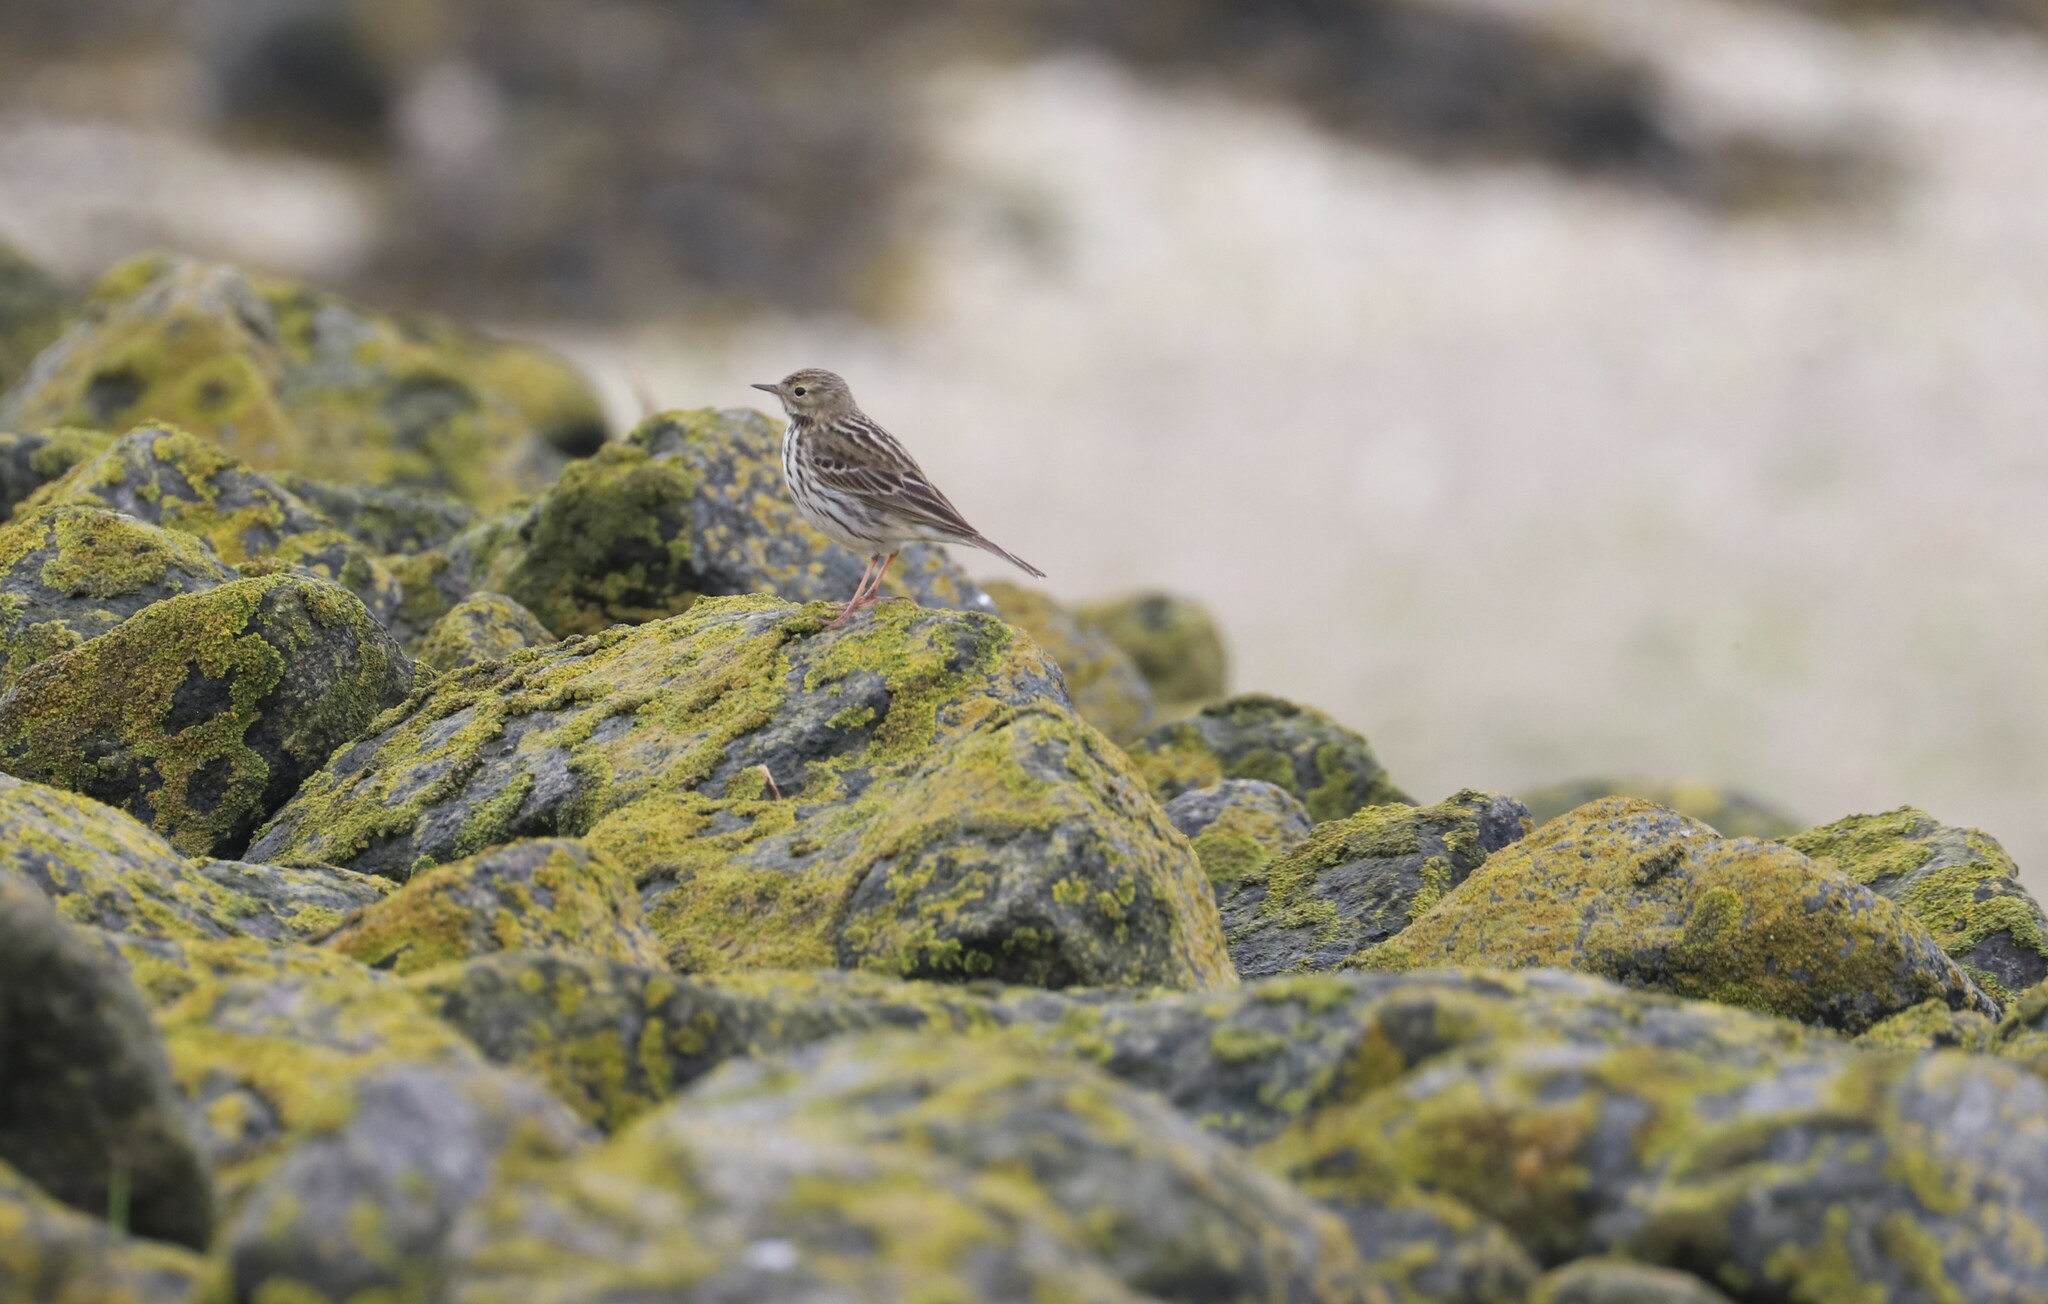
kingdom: Animalia
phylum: Chordata
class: Aves
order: Passeriformes
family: Motacillidae
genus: Anthus
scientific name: Anthus pratensis
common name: Meadow pipit
